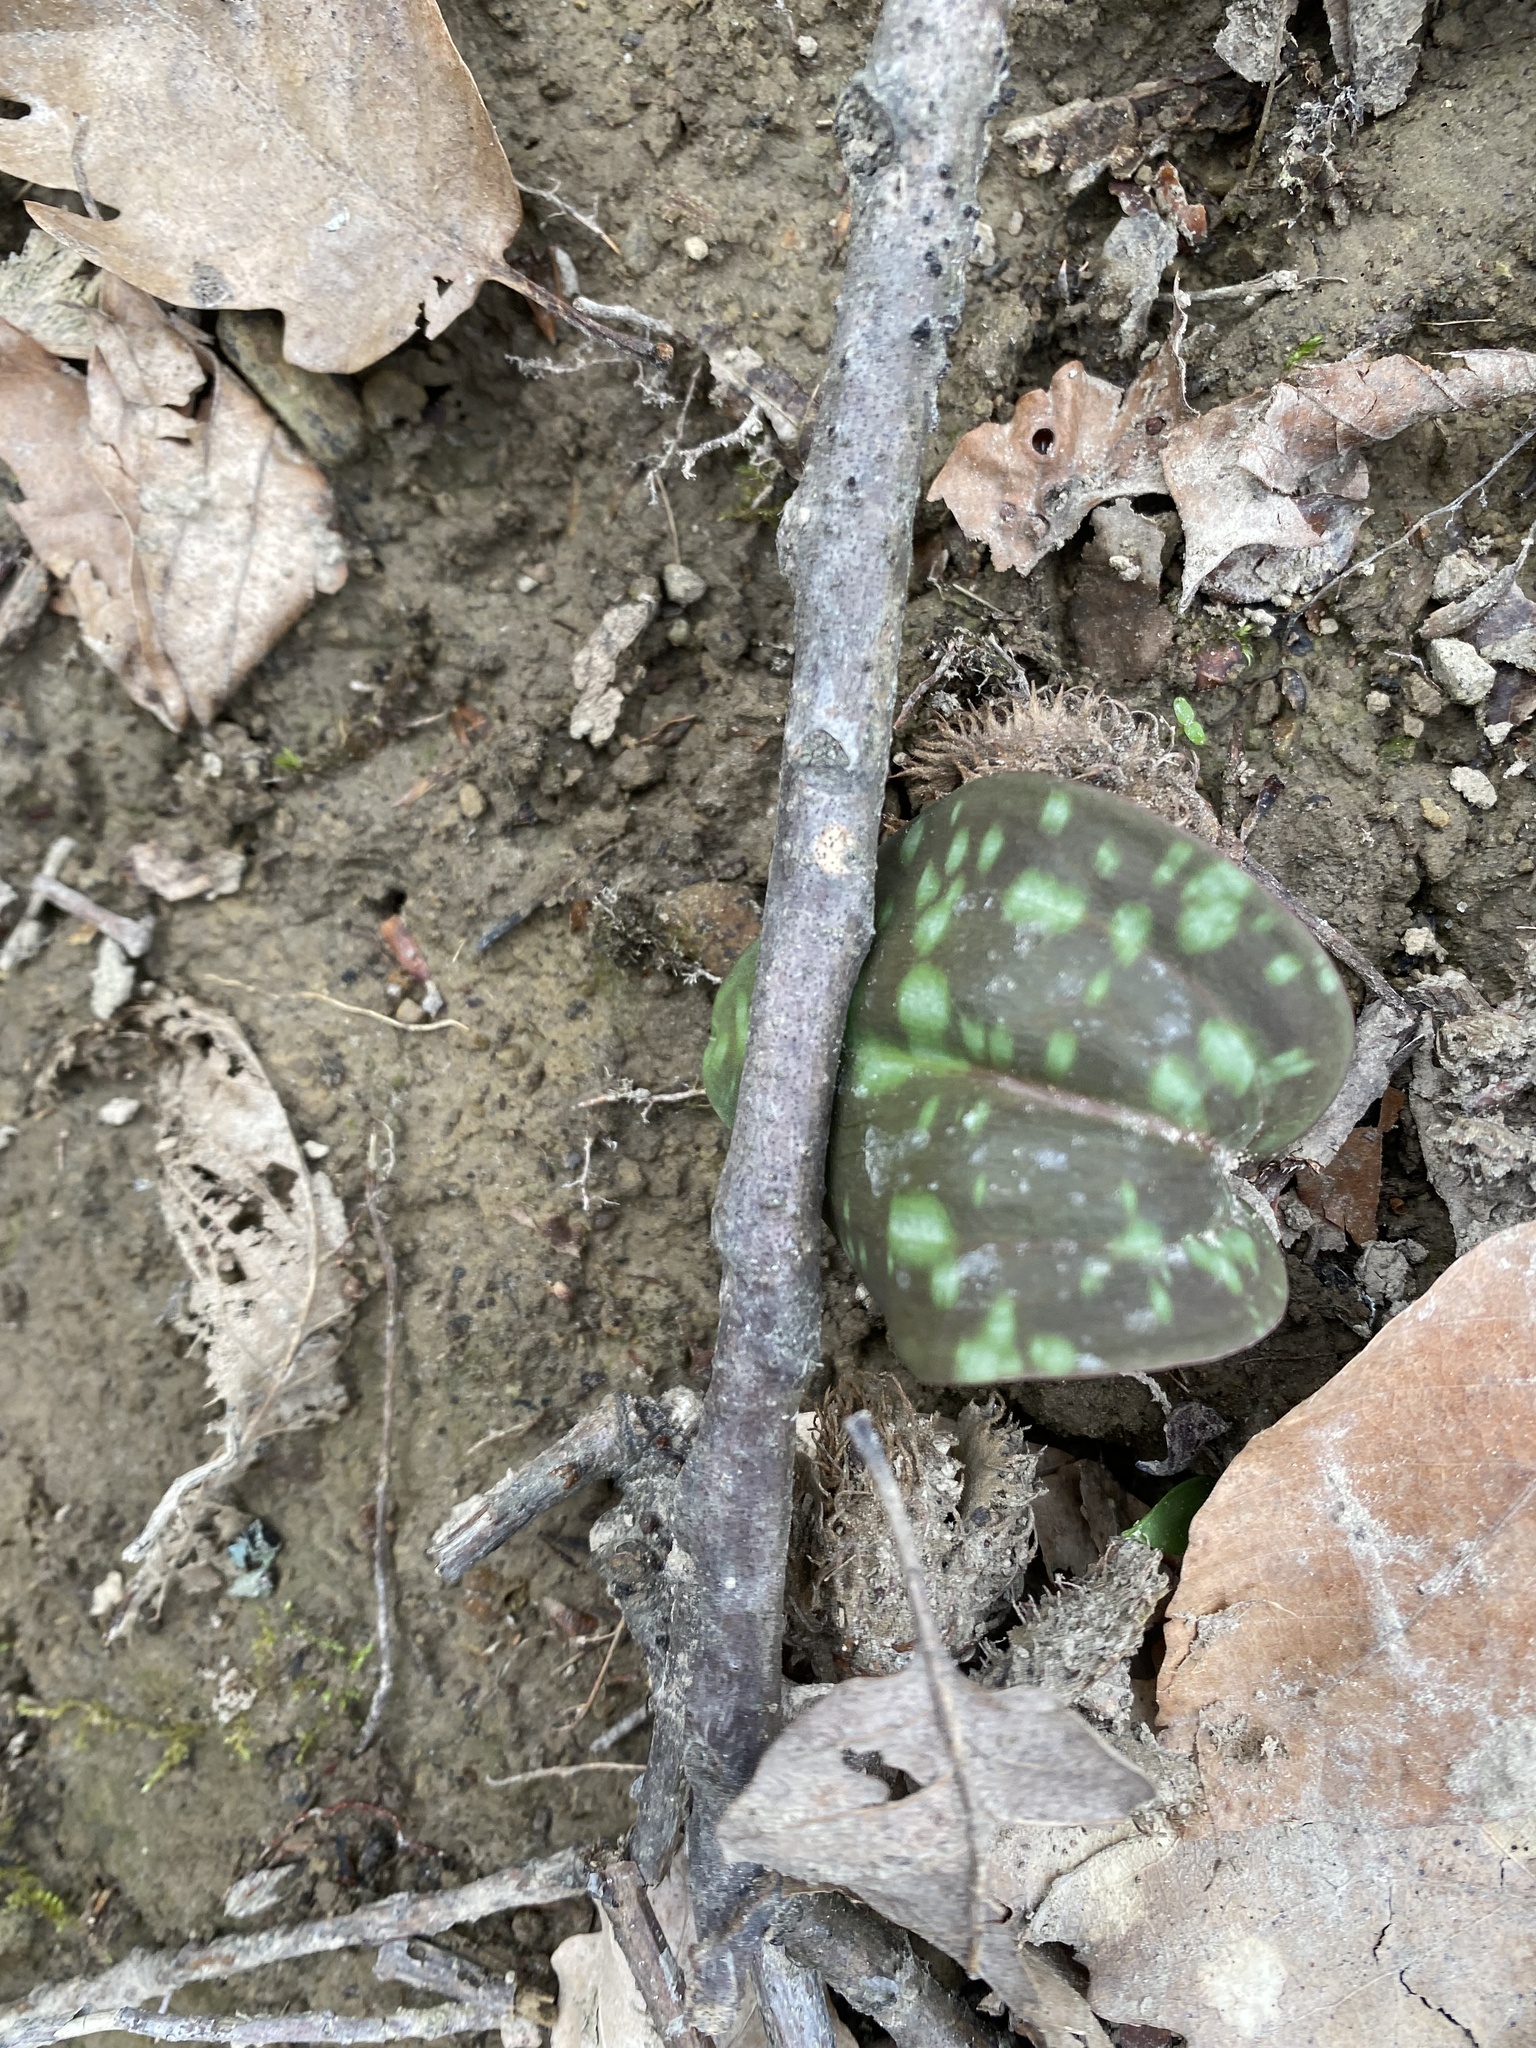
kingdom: Plantae
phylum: Tracheophyta
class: Liliopsida
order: Liliales
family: Liliaceae
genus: Erythronium
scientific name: Erythronium caucasicum
